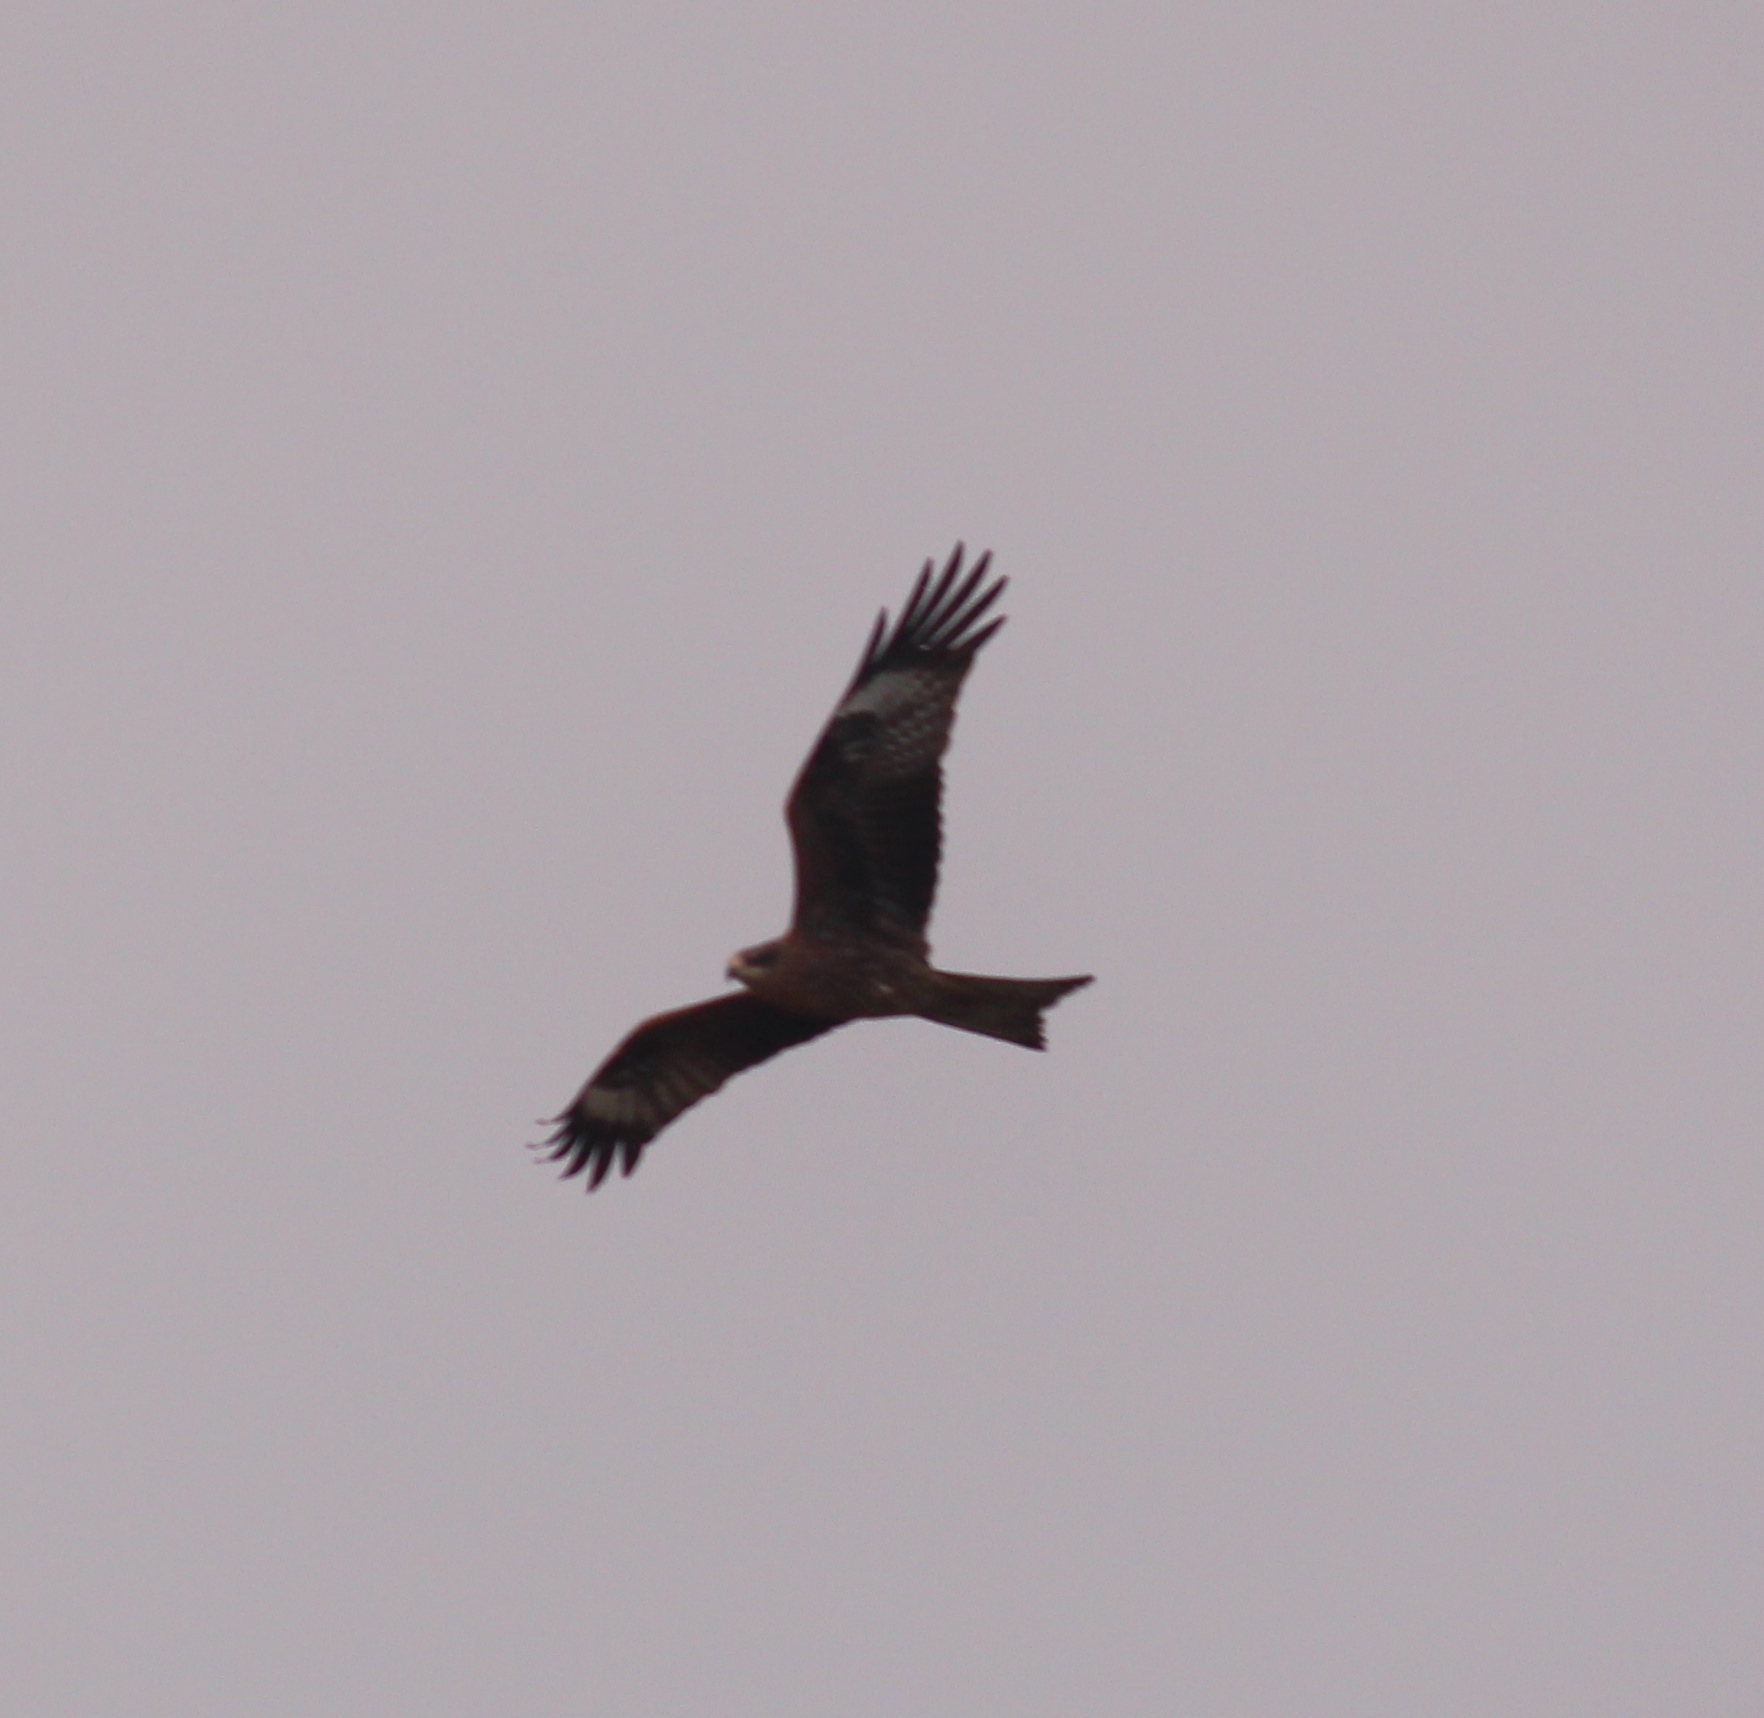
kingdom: Animalia
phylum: Chordata
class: Aves
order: Accipitriformes
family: Accipitridae
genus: Milvus
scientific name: Milvus migrans
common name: Black kite
